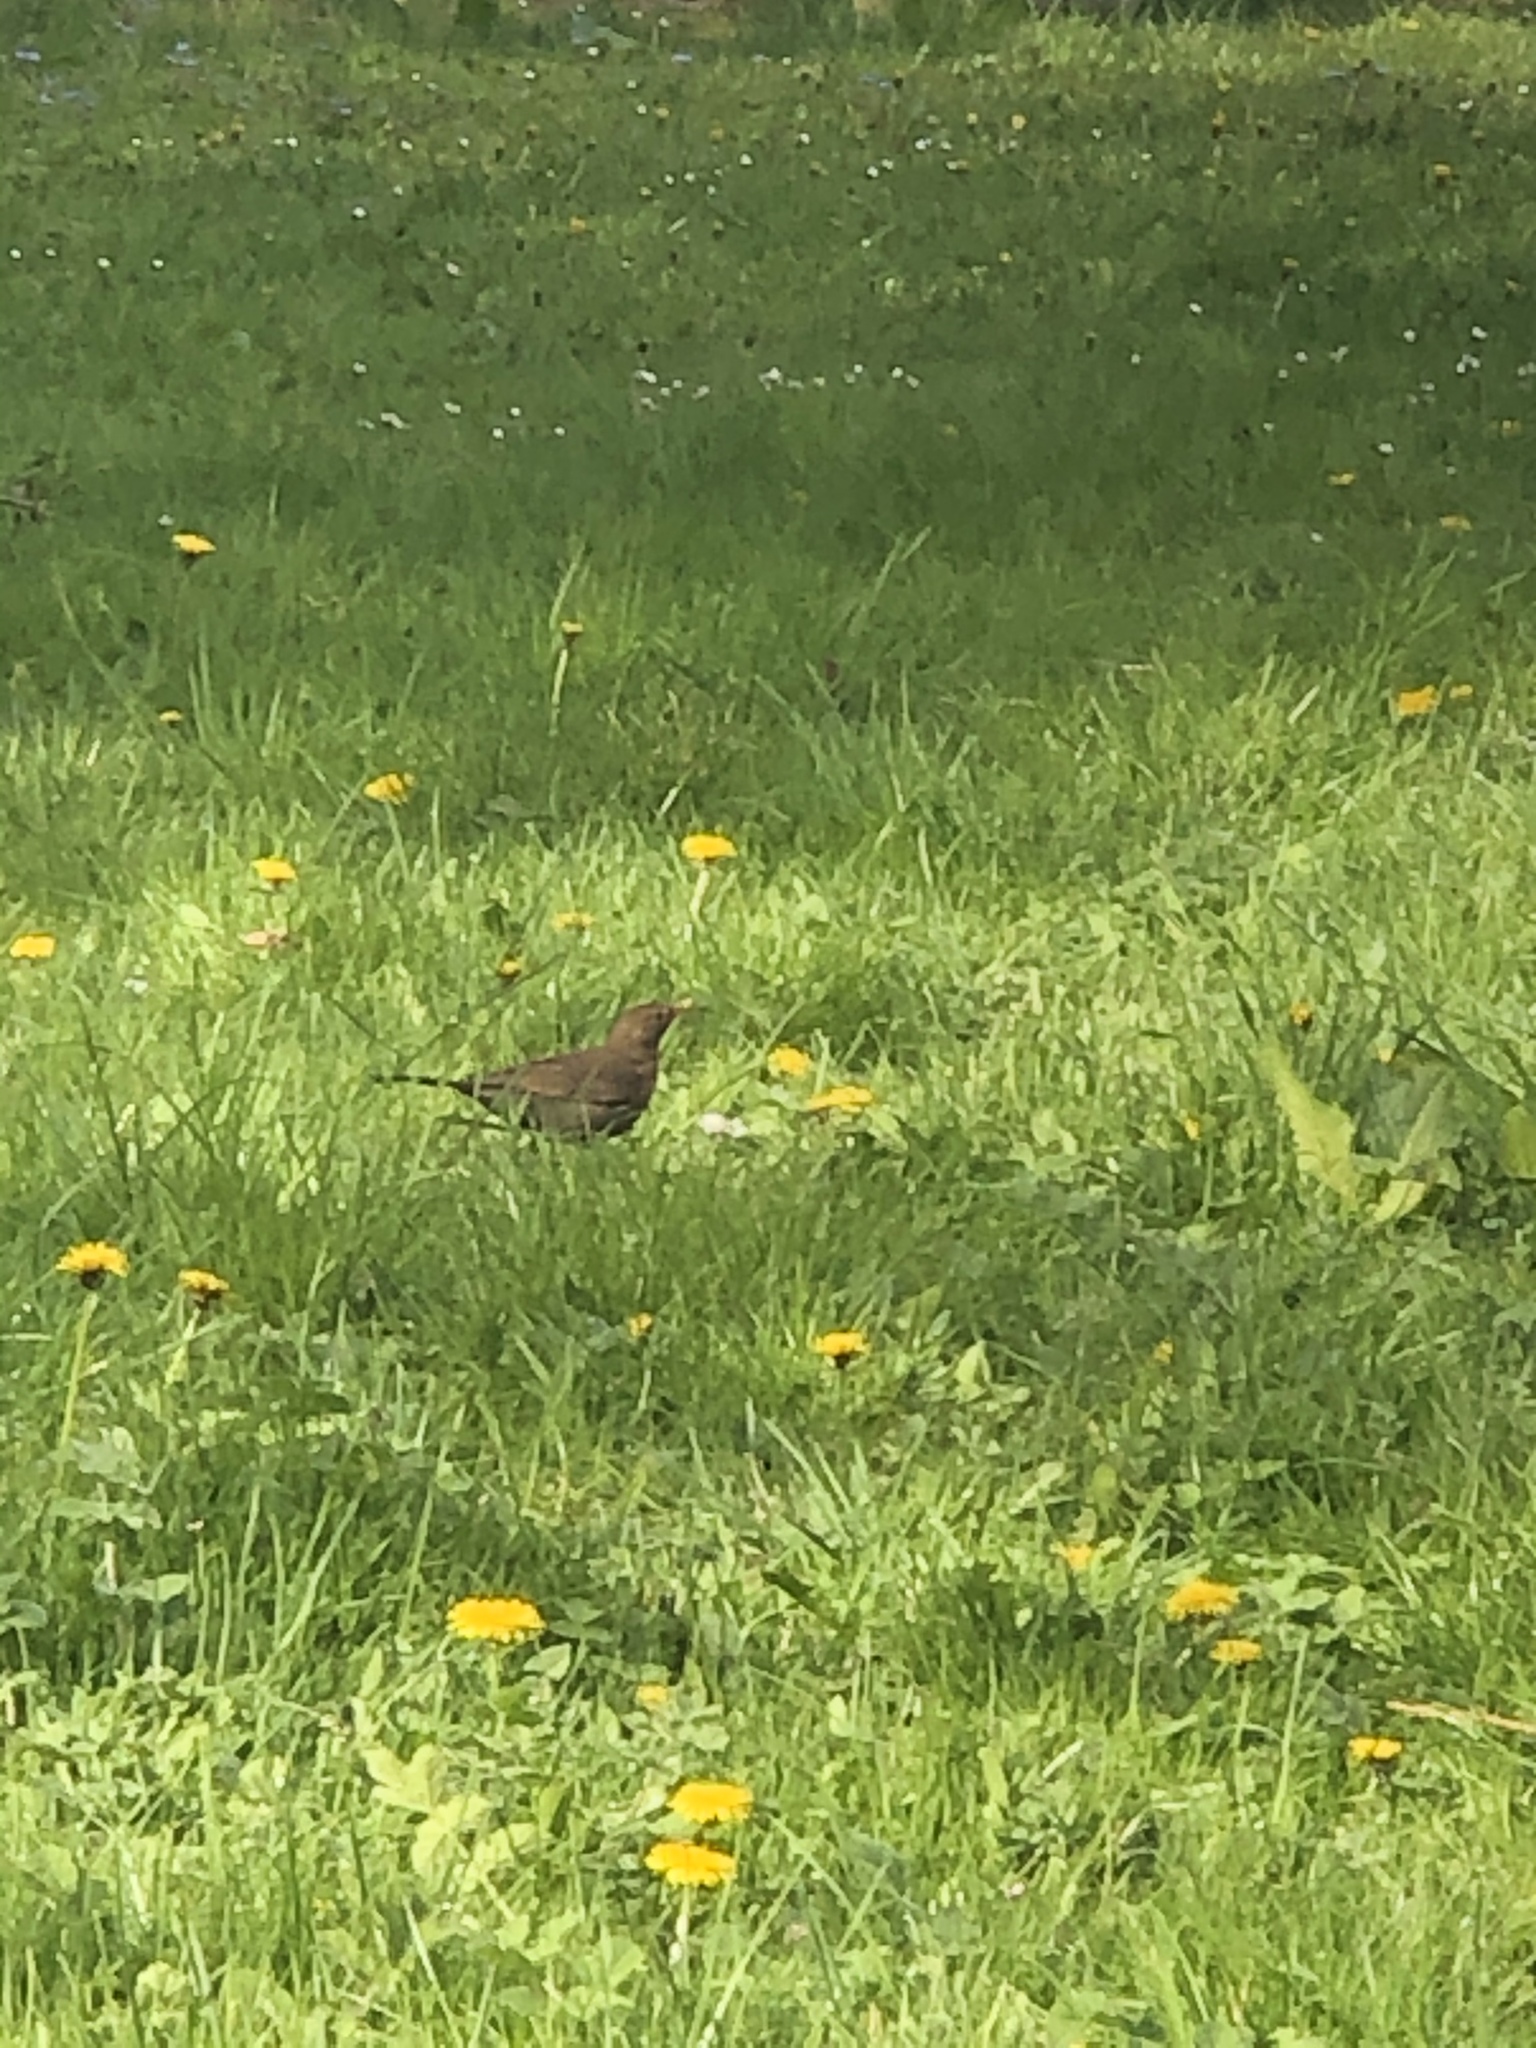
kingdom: Animalia
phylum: Chordata
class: Aves
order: Passeriformes
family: Turdidae
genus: Turdus
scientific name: Turdus merula
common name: Common blackbird
